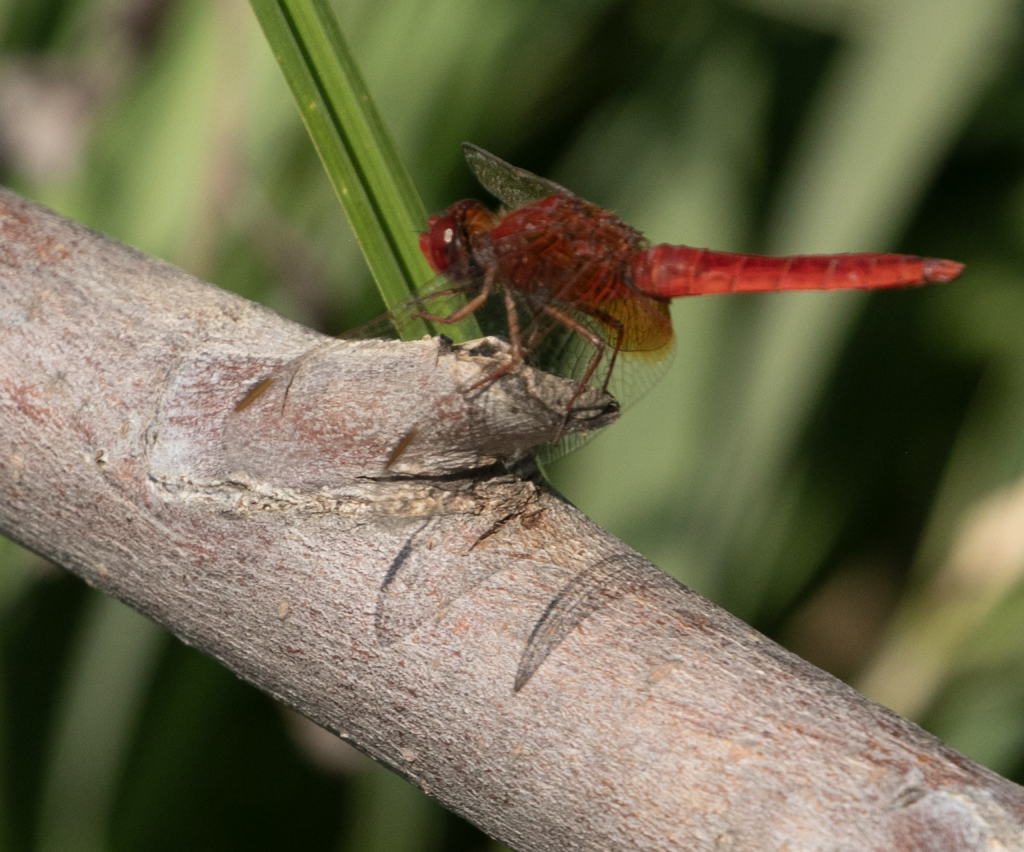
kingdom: Animalia
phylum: Arthropoda
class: Insecta
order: Odonata
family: Libellulidae
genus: Crocothemis
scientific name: Crocothemis erythraea
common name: Scarlet dragonfly
